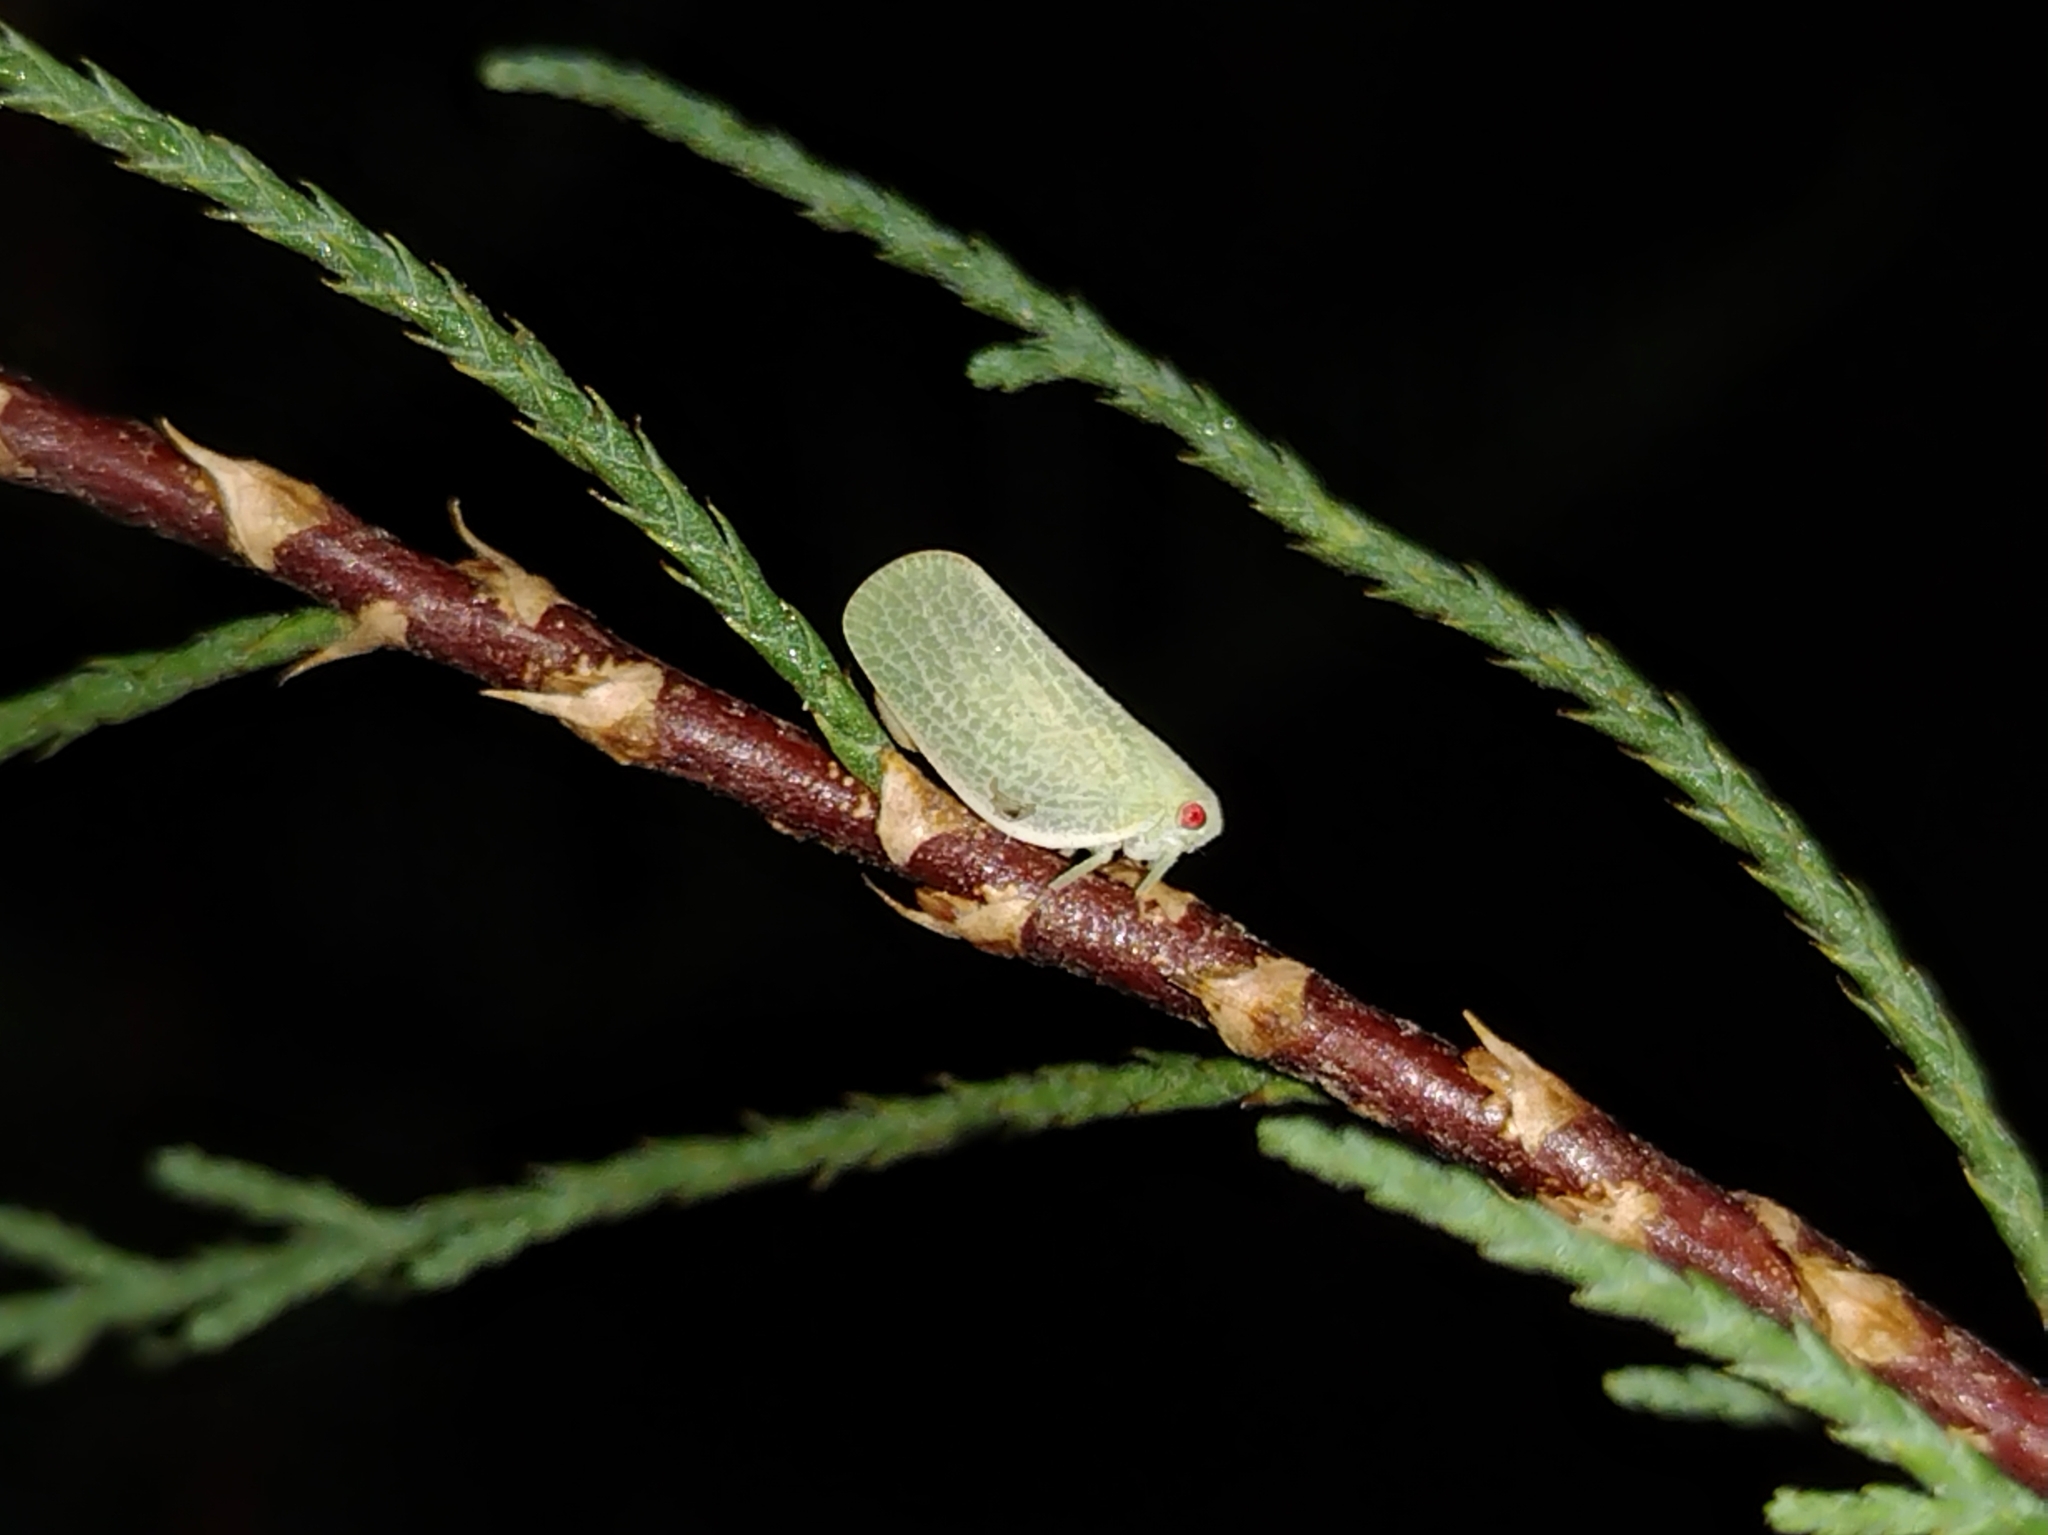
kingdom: Animalia
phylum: Arthropoda
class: Insecta
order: Hemiptera
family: Acanaloniidae
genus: Acanalonia
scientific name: Acanalonia clypeata
